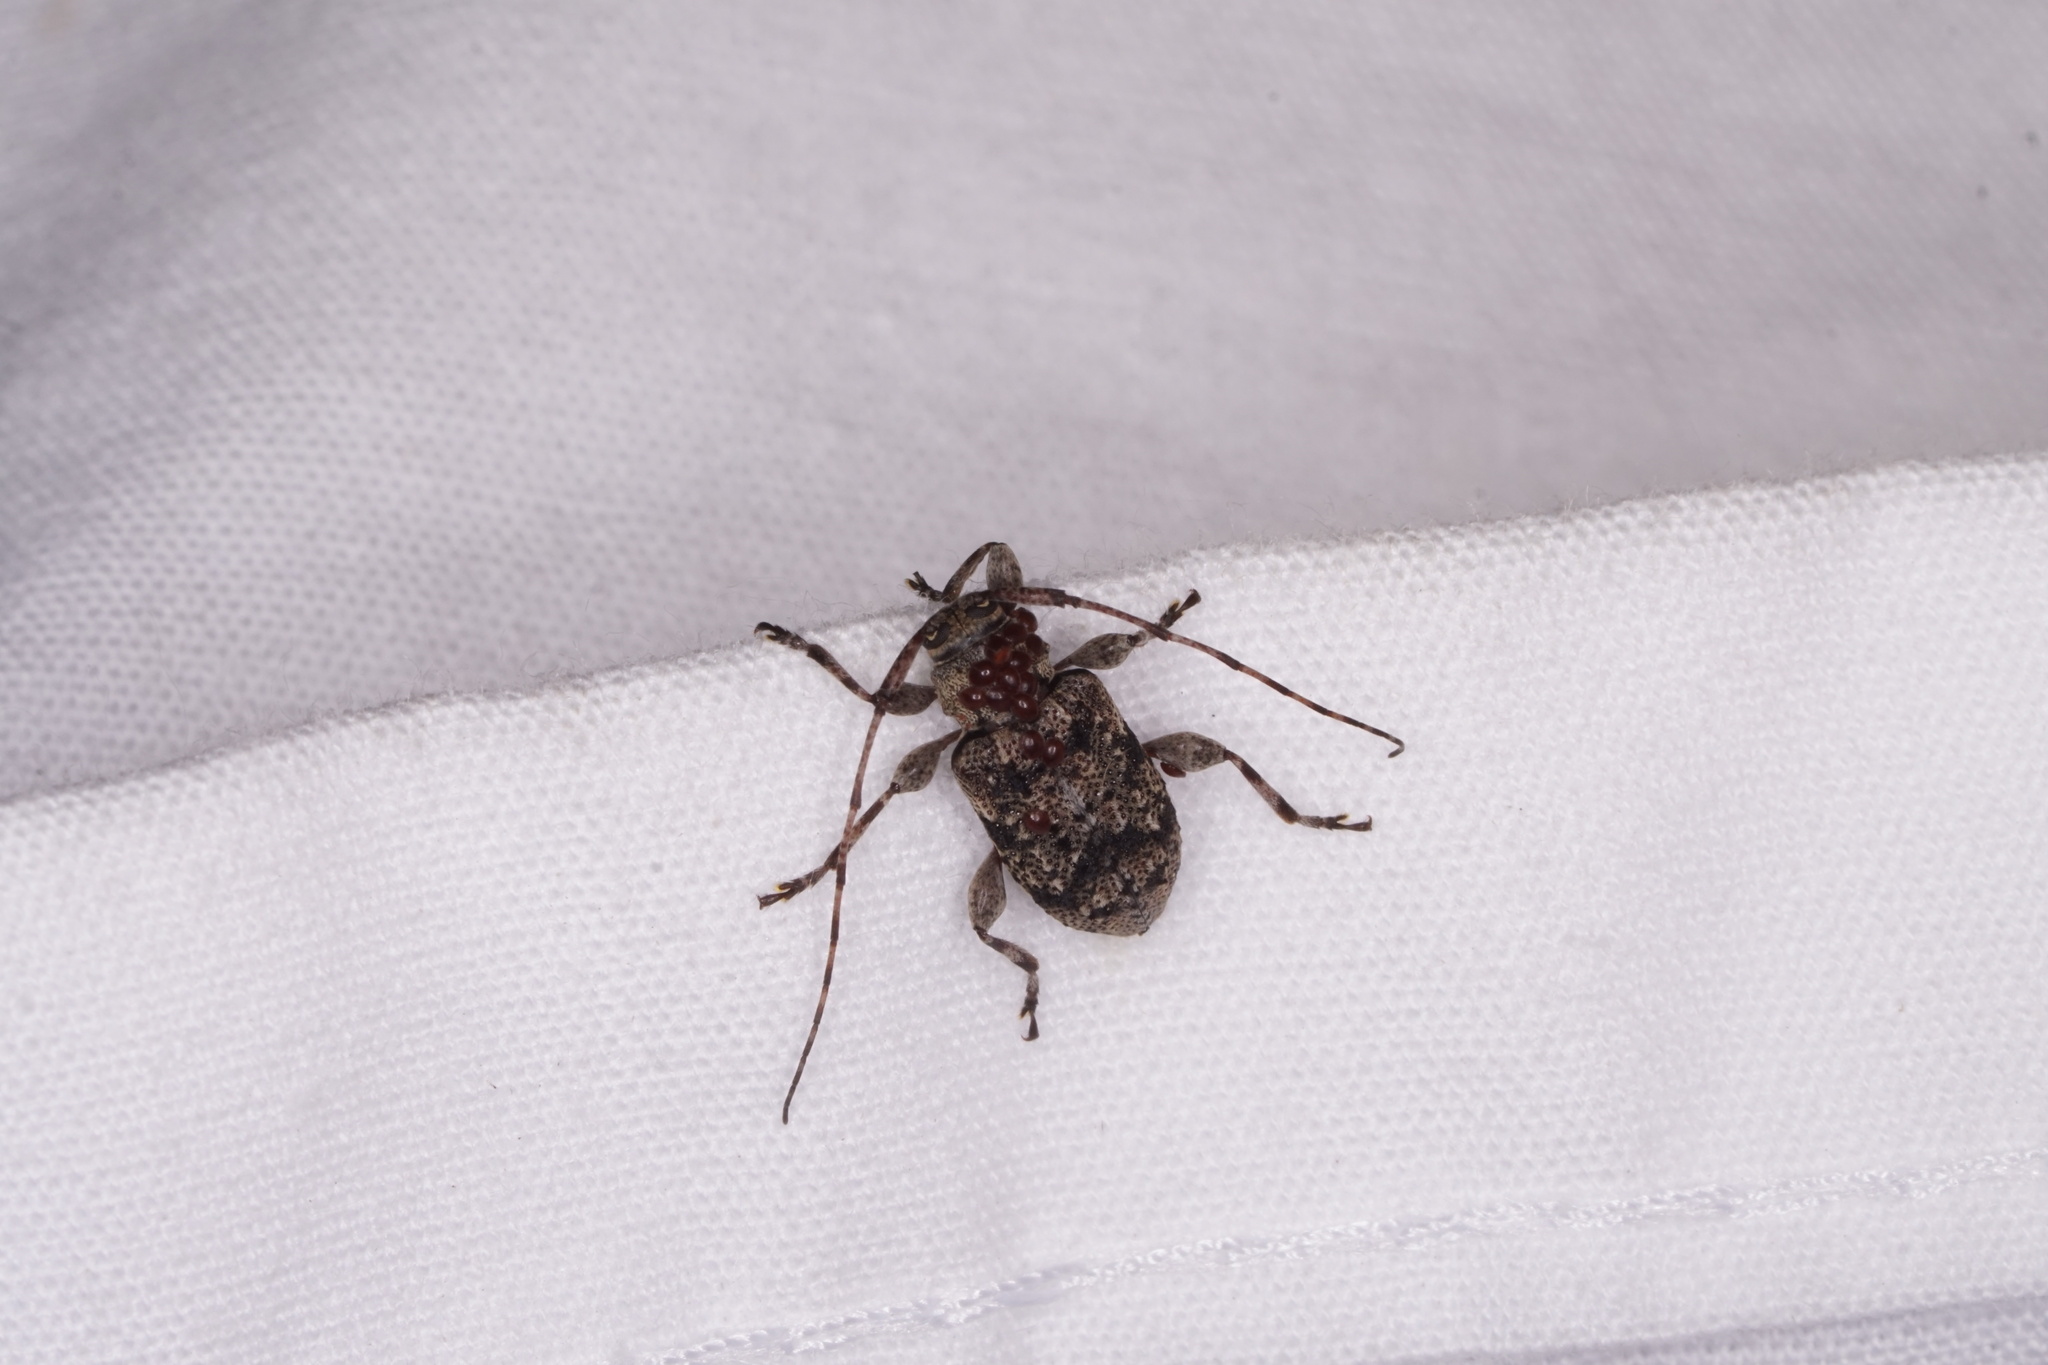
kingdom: Animalia
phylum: Arthropoda
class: Insecta
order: Coleoptera
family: Cerambycidae
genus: Astylopsis
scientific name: Astylopsis sexguttata
